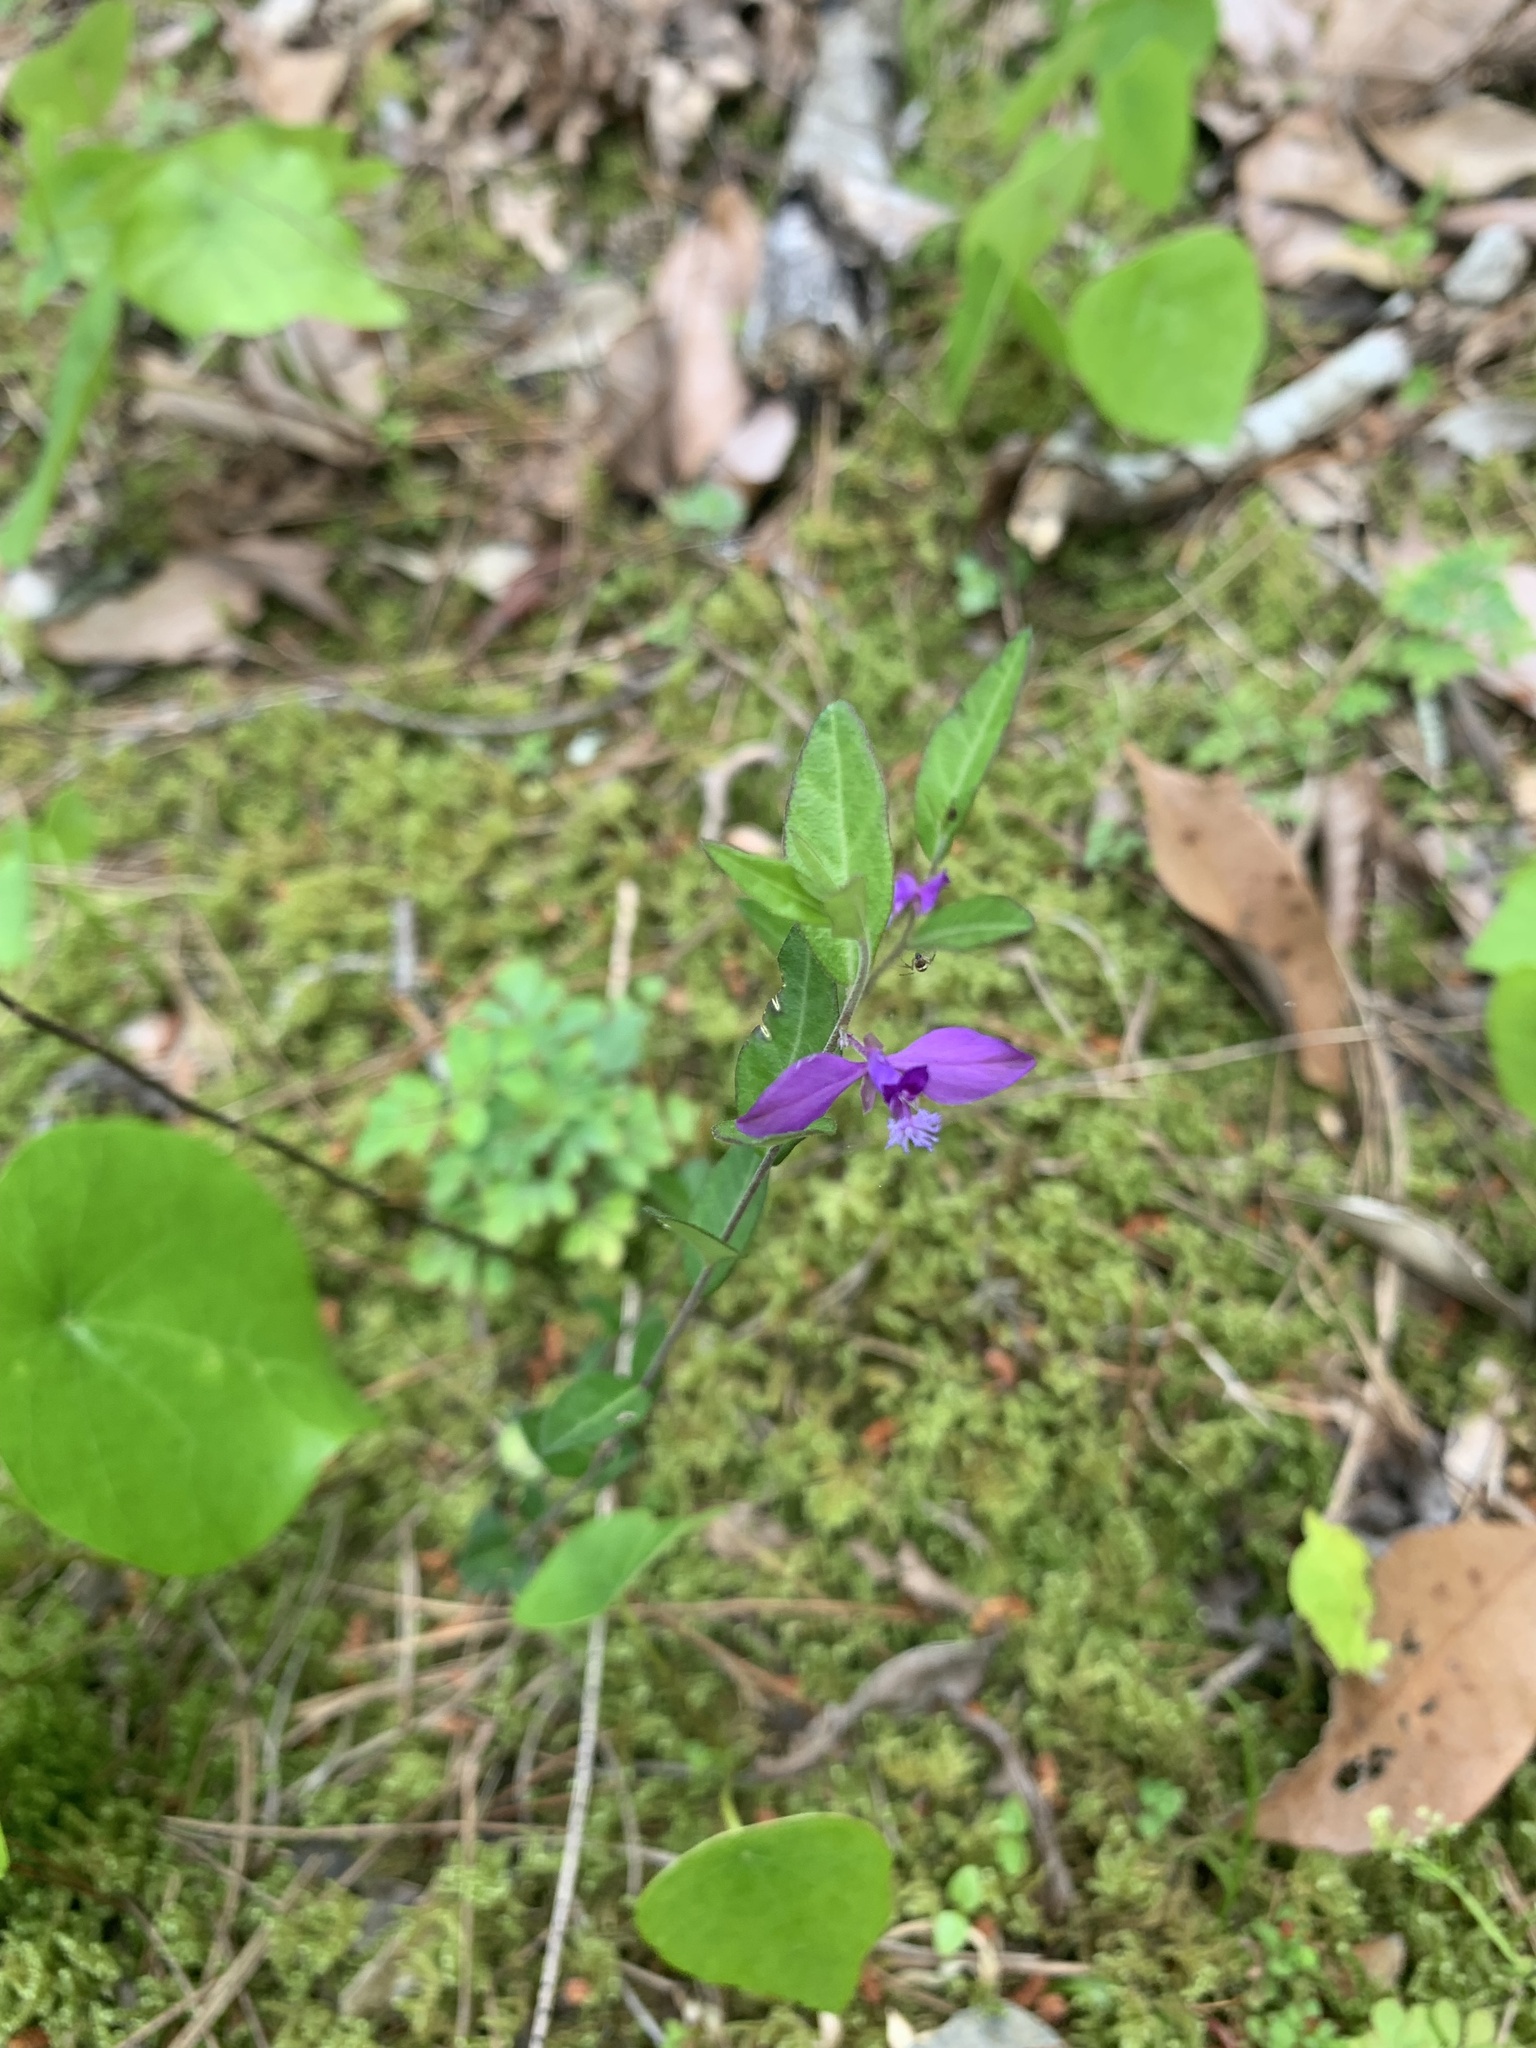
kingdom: Plantae
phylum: Tracheophyta
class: Magnoliopsida
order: Fabales
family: Polygalaceae
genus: Polygala
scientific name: Polygala japonica
